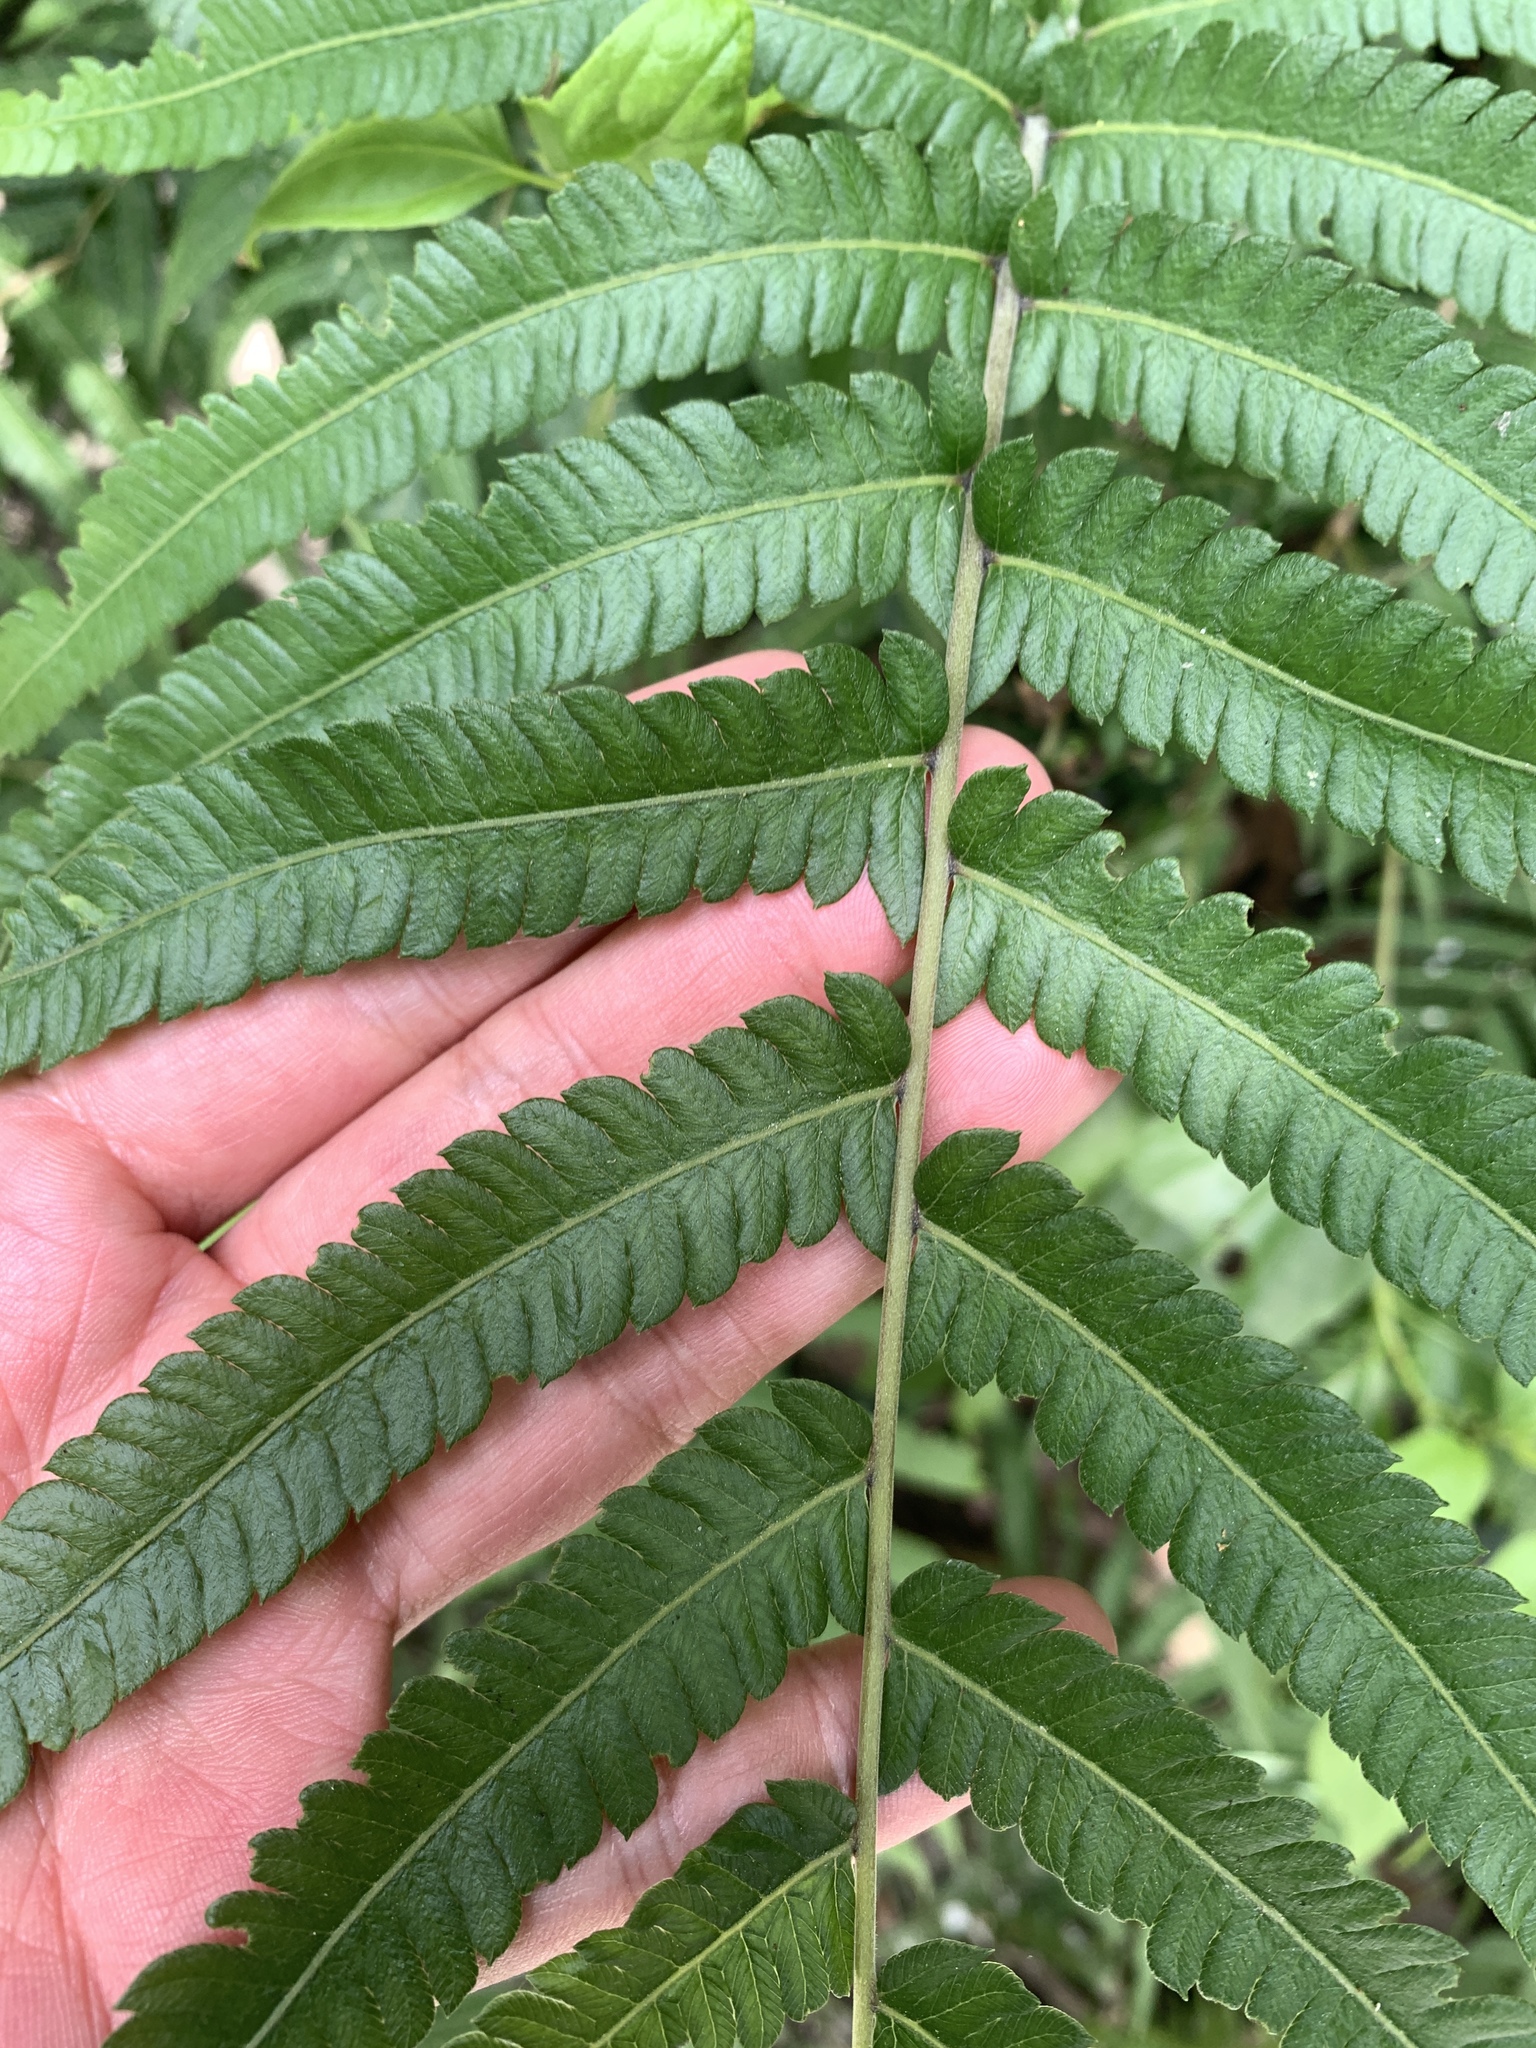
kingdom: Plantae
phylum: Tracheophyta
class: Polypodiopsida
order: Polypodiales
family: Thelypteridaceae
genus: Christella
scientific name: Christella acuminata
